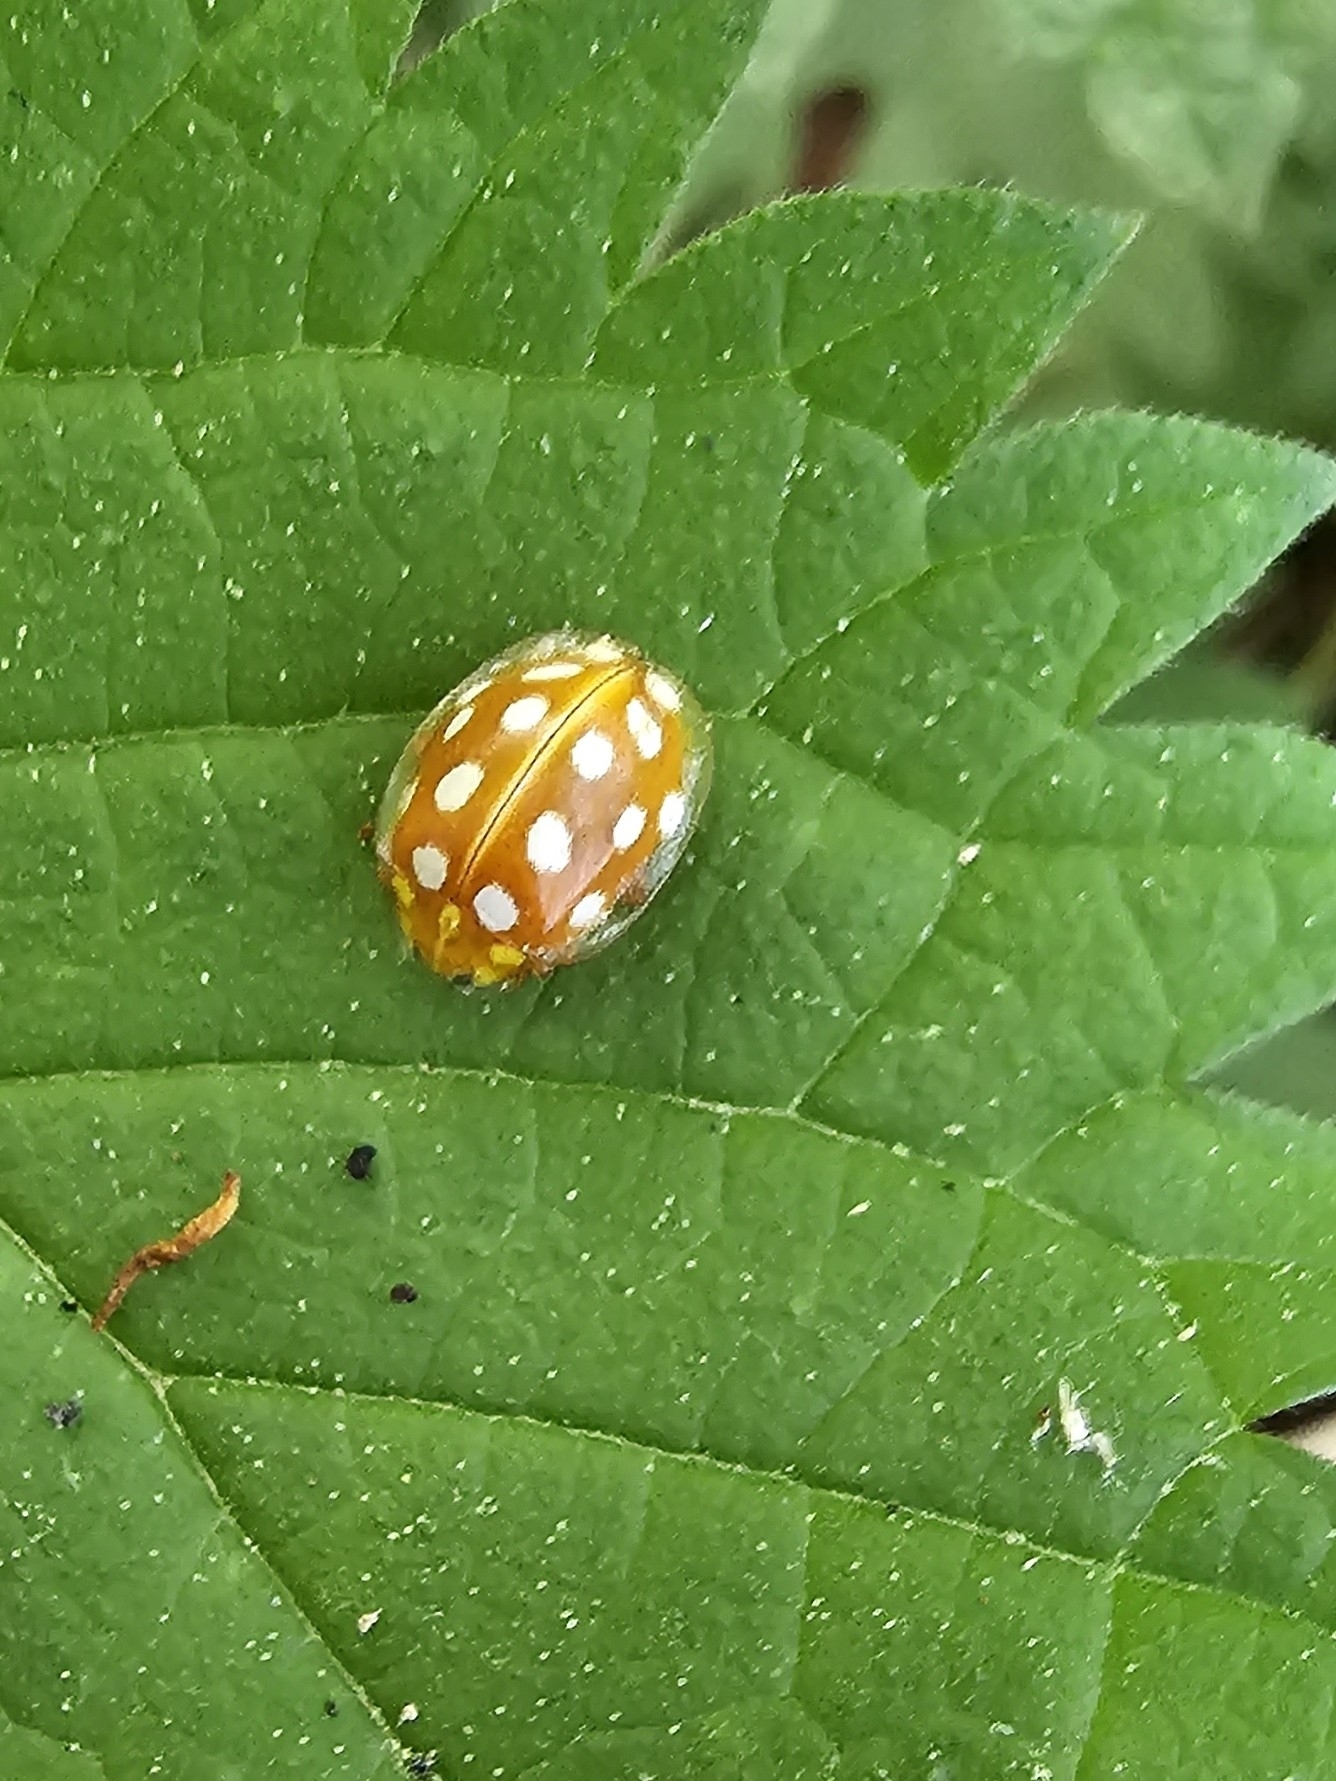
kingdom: Animalia
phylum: Arthropoda
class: Insecta
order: Coleoptera
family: Coccinellidae
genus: Halyzia
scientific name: Halyzia sedecimguttata
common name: Orange ladybird
